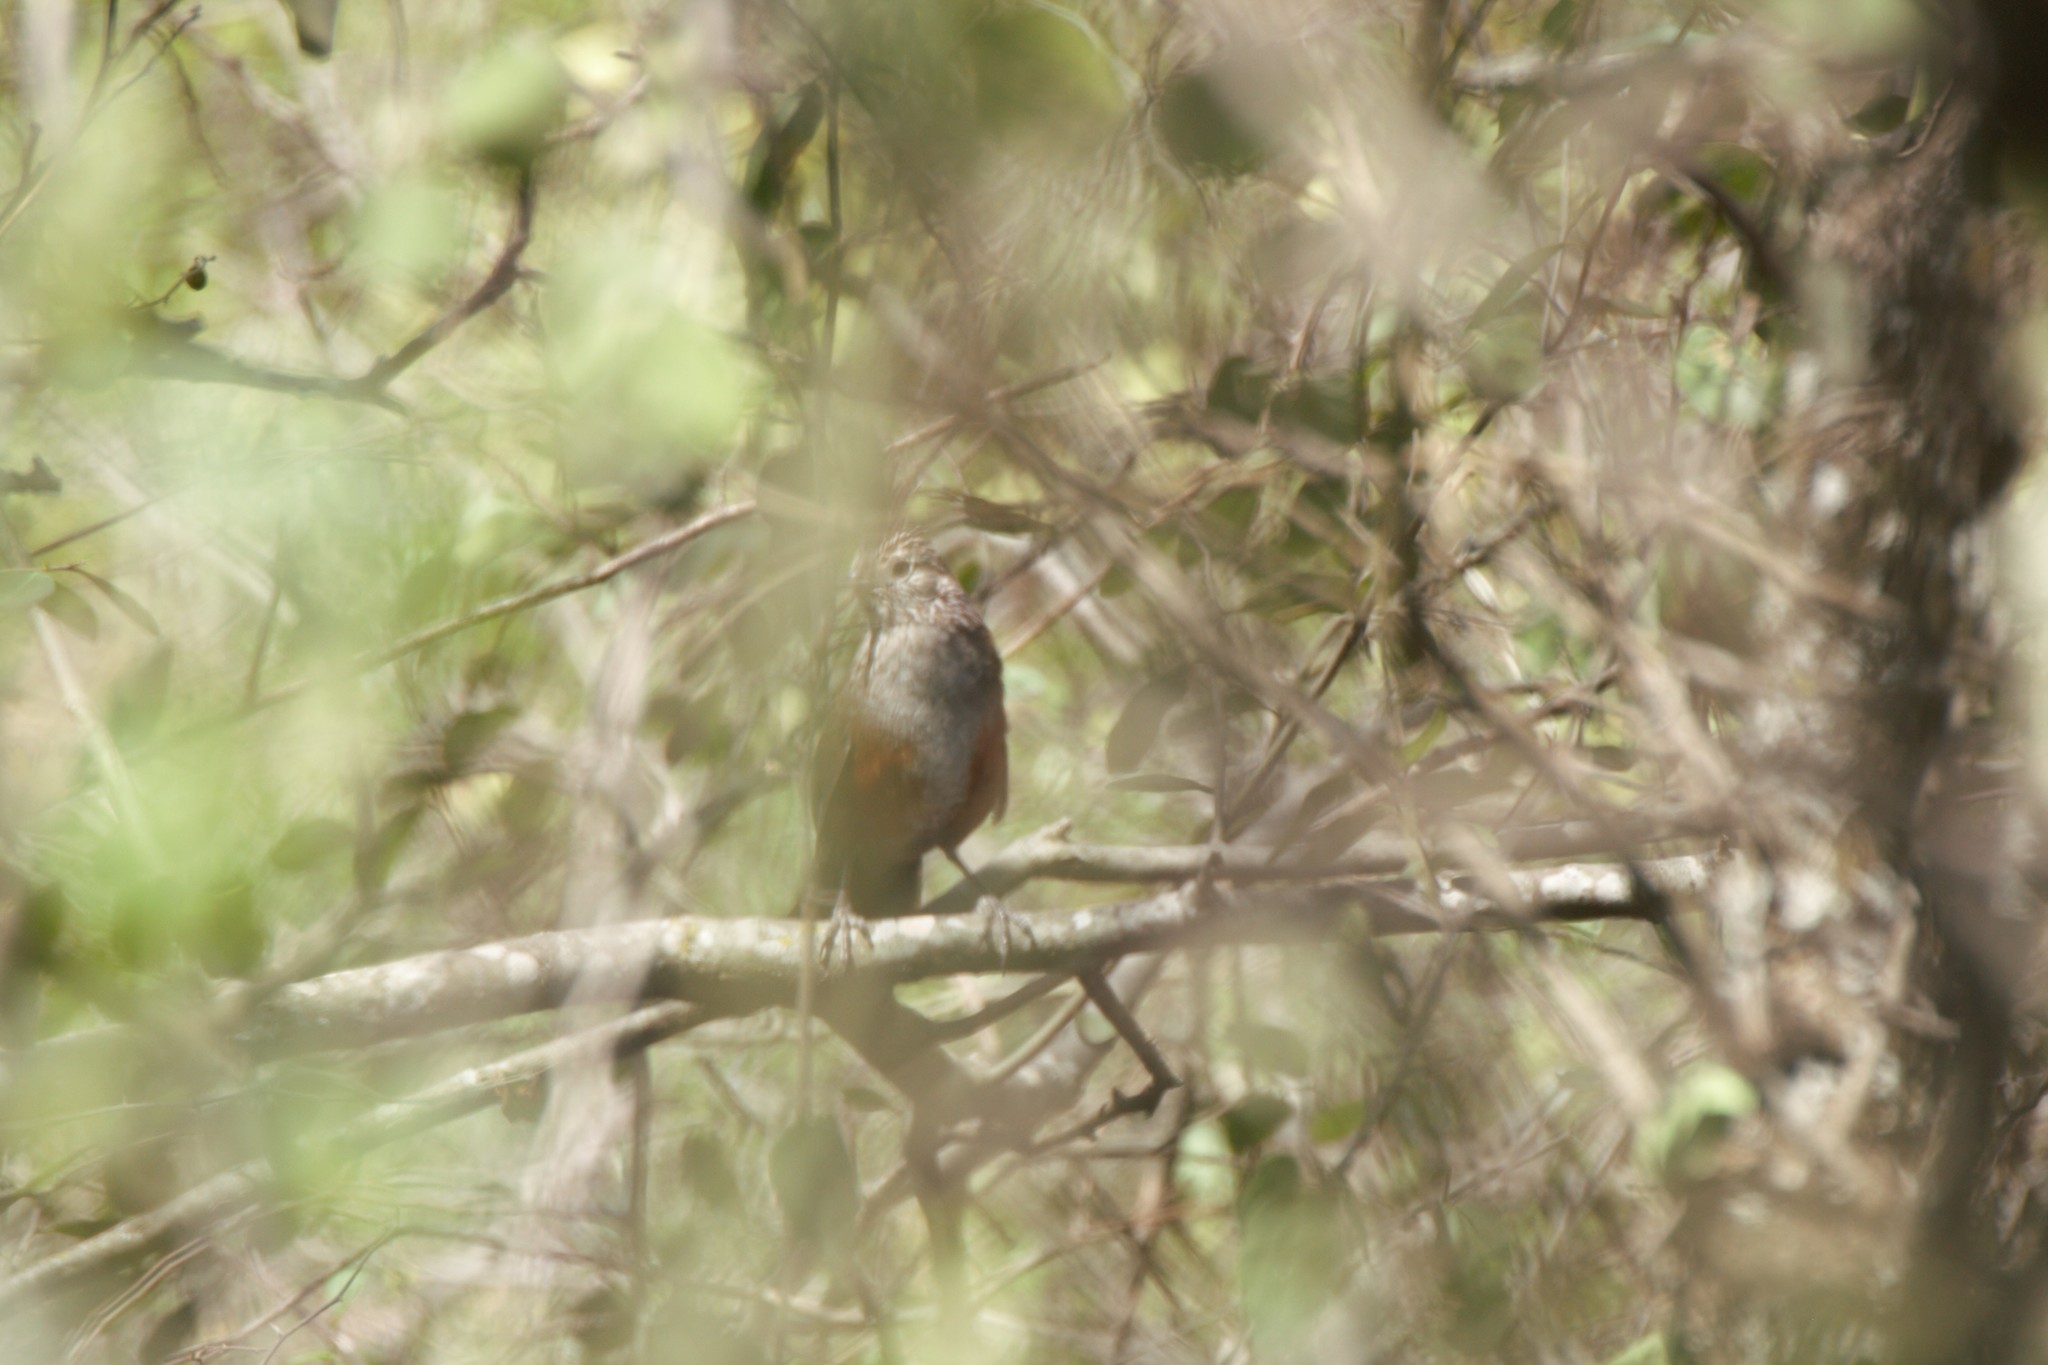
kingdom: Animalia
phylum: Chordata
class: Aves
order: Passeriformes
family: Rhinocryptidae
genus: Rhinocrypta
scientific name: Rhinocrypta lanceolata
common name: Crested gallito
